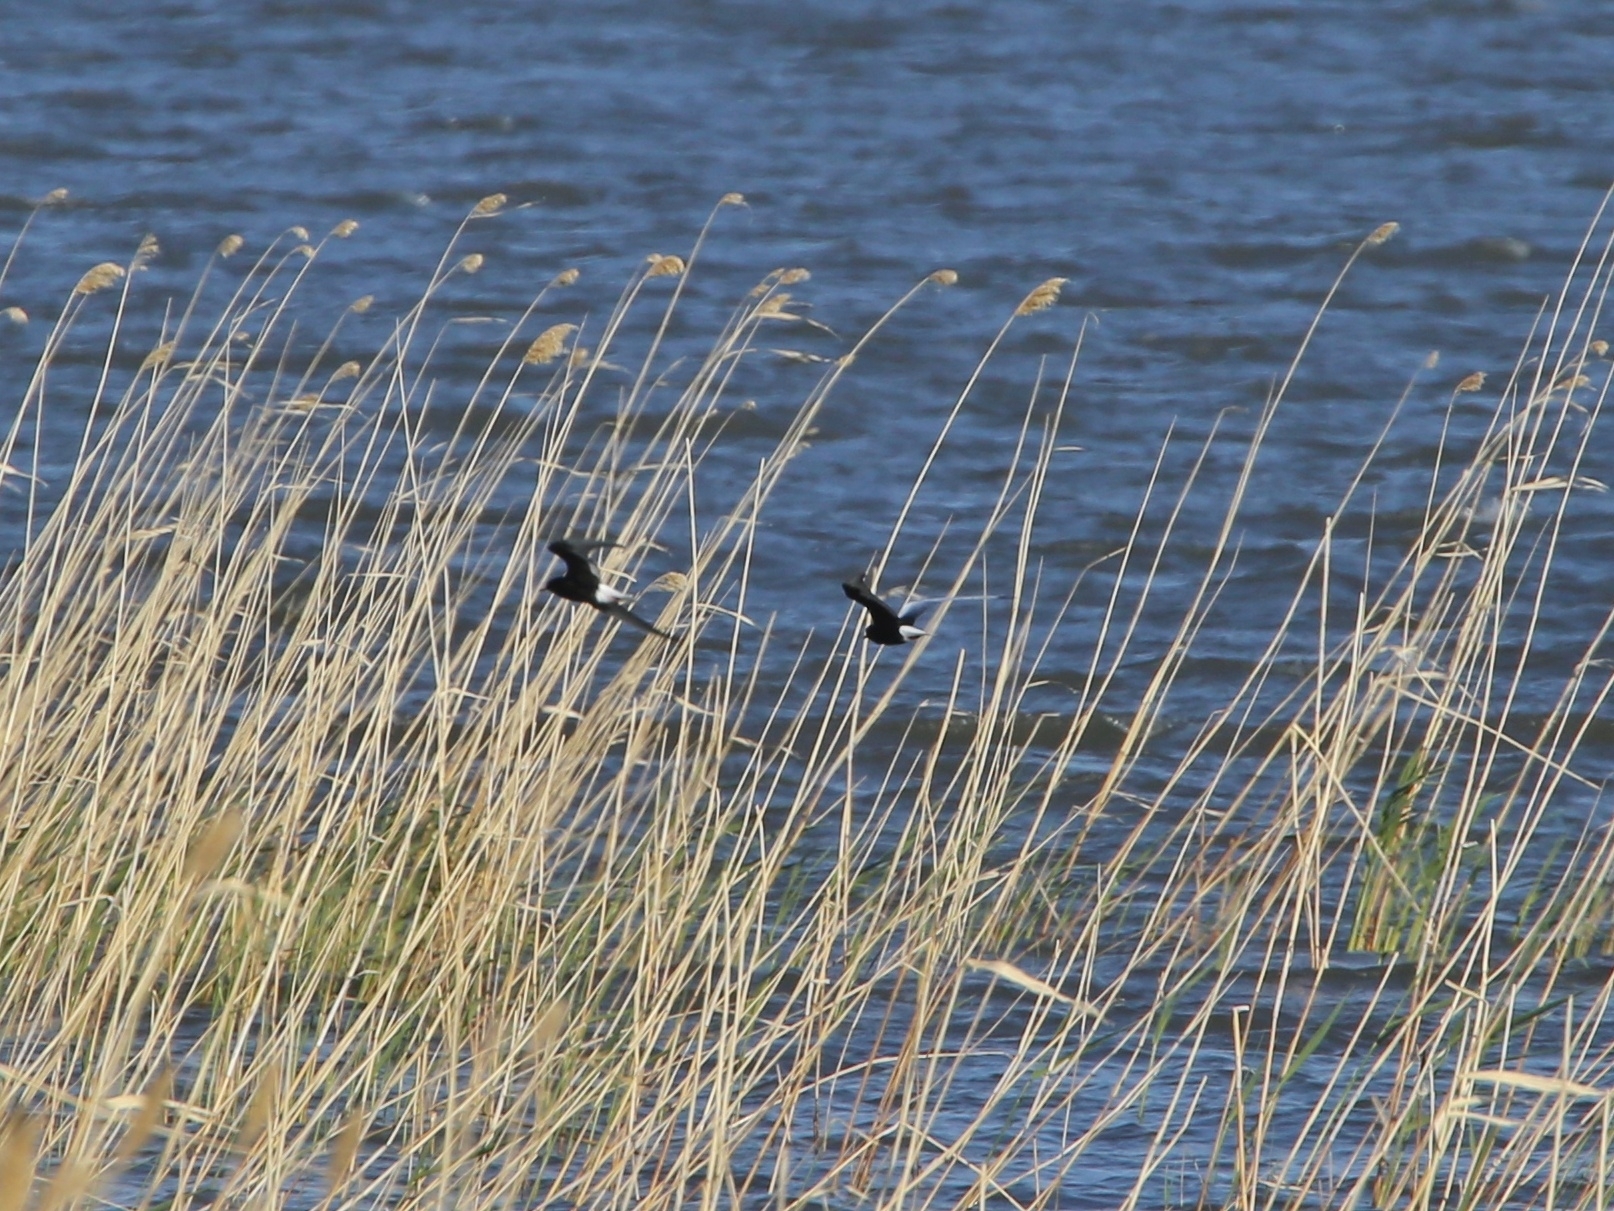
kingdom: Animalia
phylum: Chordata
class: Aves
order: Charadriiformes
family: Laridae
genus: Chlidonias
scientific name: Chlidonias leucopterus
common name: White-winged tern
